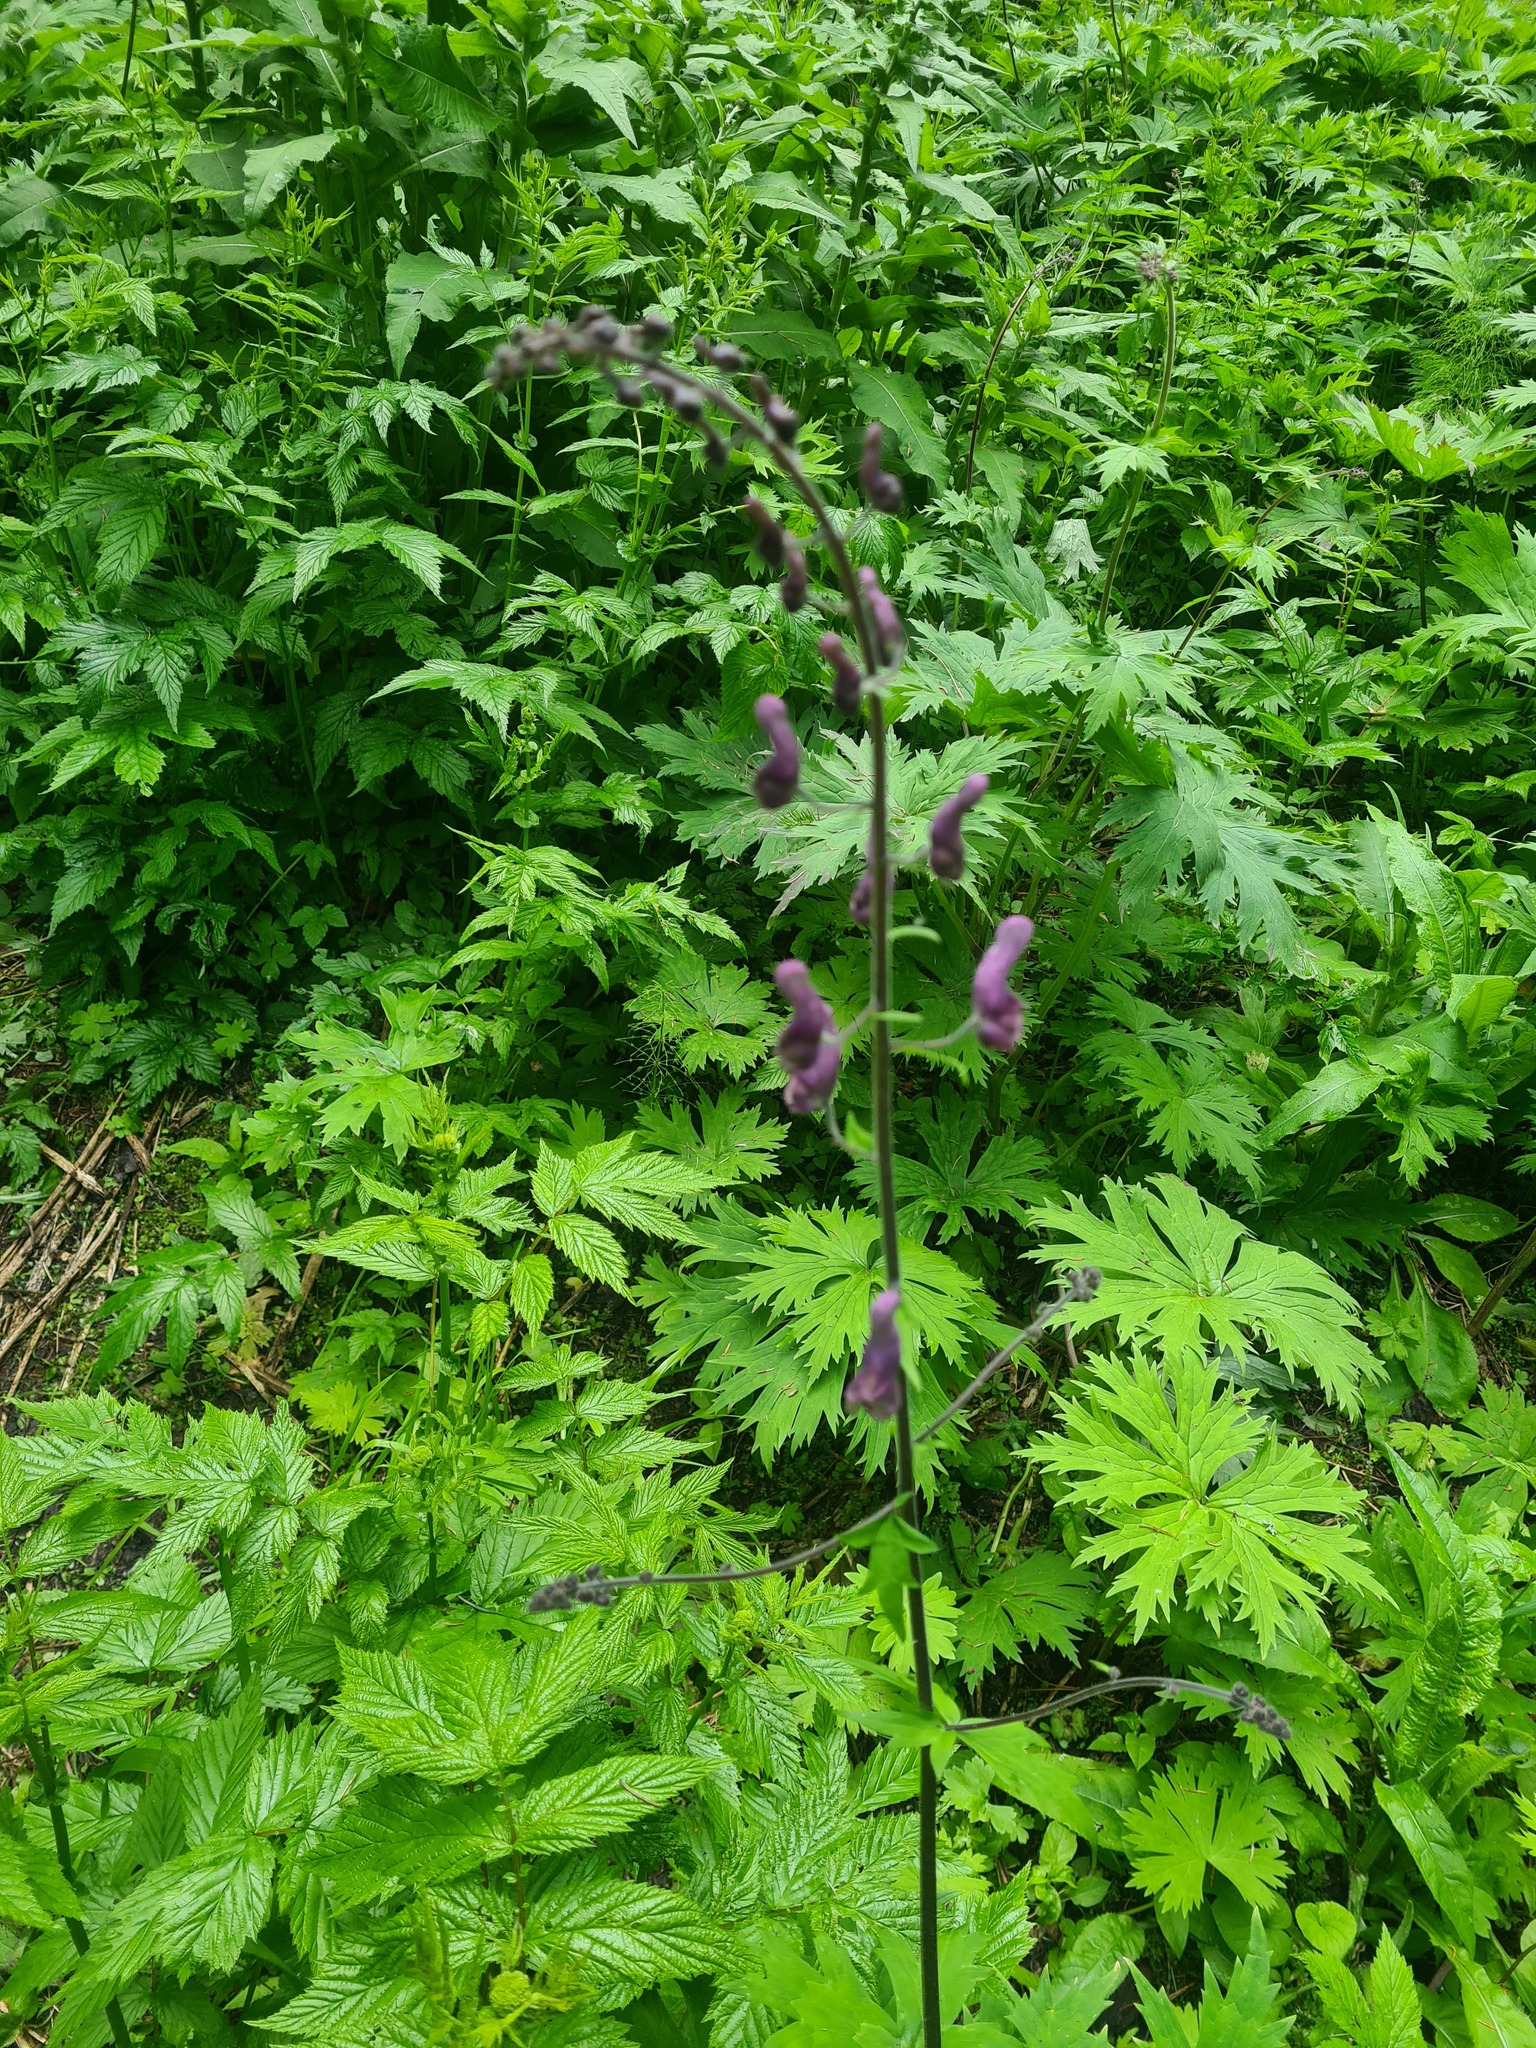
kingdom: Plantae
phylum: Tracheophyta
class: Magnoliopsida
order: Ranunculales
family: Ranunculaceae
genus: Aconitum
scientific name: Aconitum septentrionale
